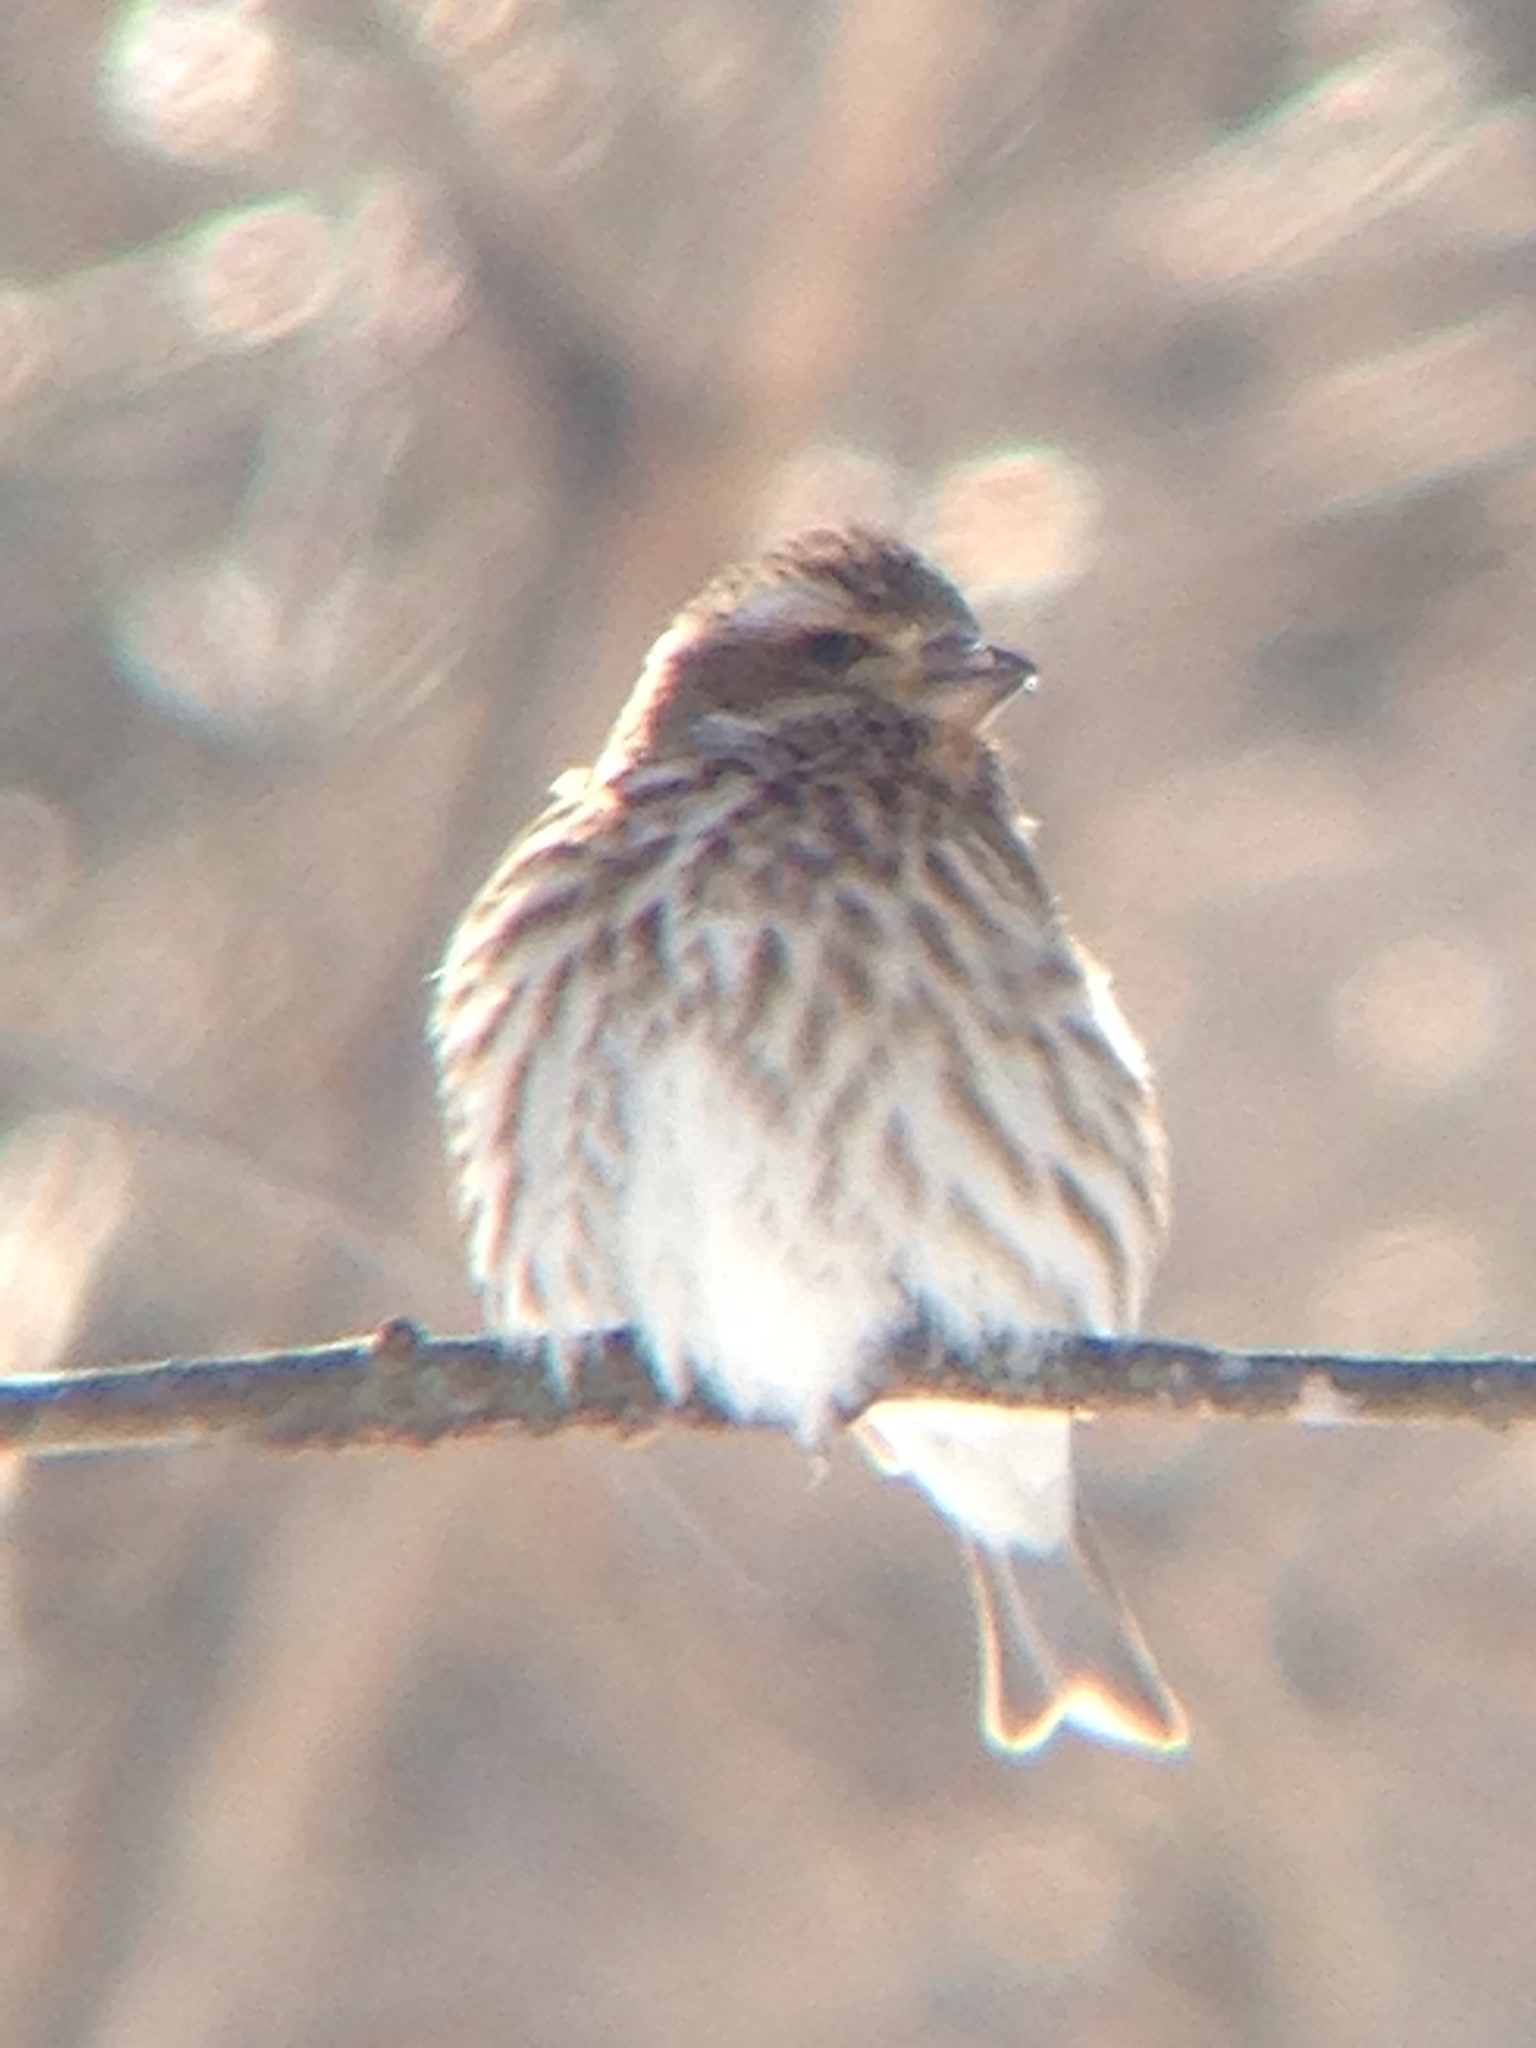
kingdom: Animalia
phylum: Chordata
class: Aves
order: Passeriformes
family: Fringillidae
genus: Haemorhous
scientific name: Haemorhous purpureus
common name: Purple finch
